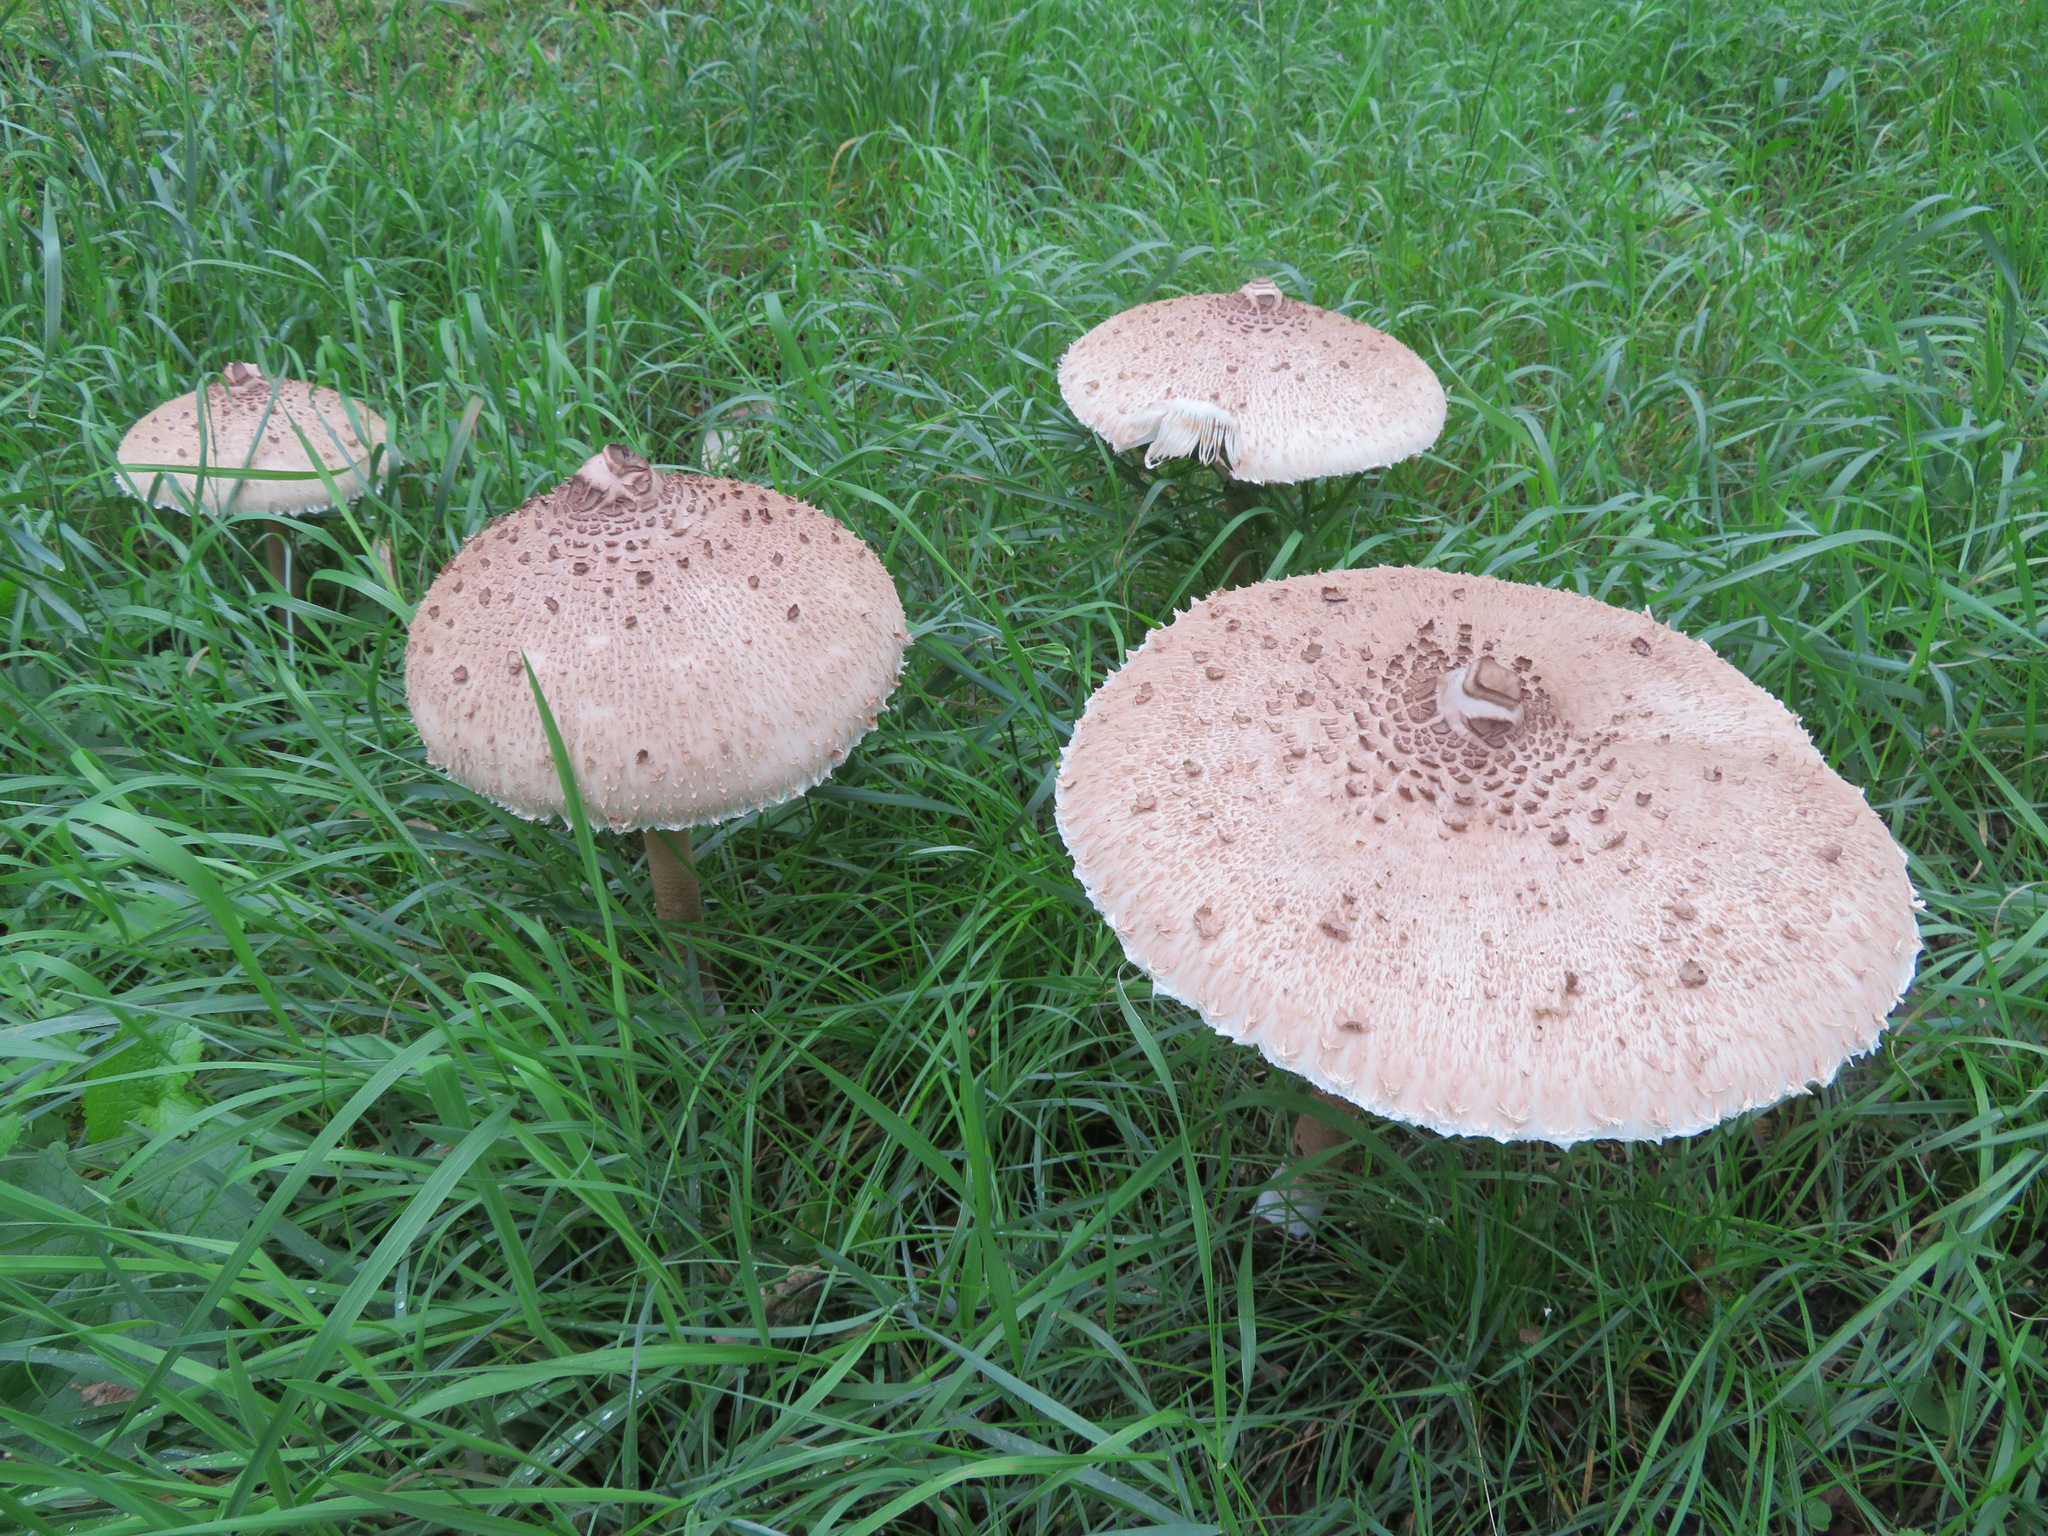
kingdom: Fungi
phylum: Basidiomycota
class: Agaricomycetes
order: Agaricales
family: Agaricaceae
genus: Macrolepiota
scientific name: Macrolepiota procera
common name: Parasol
